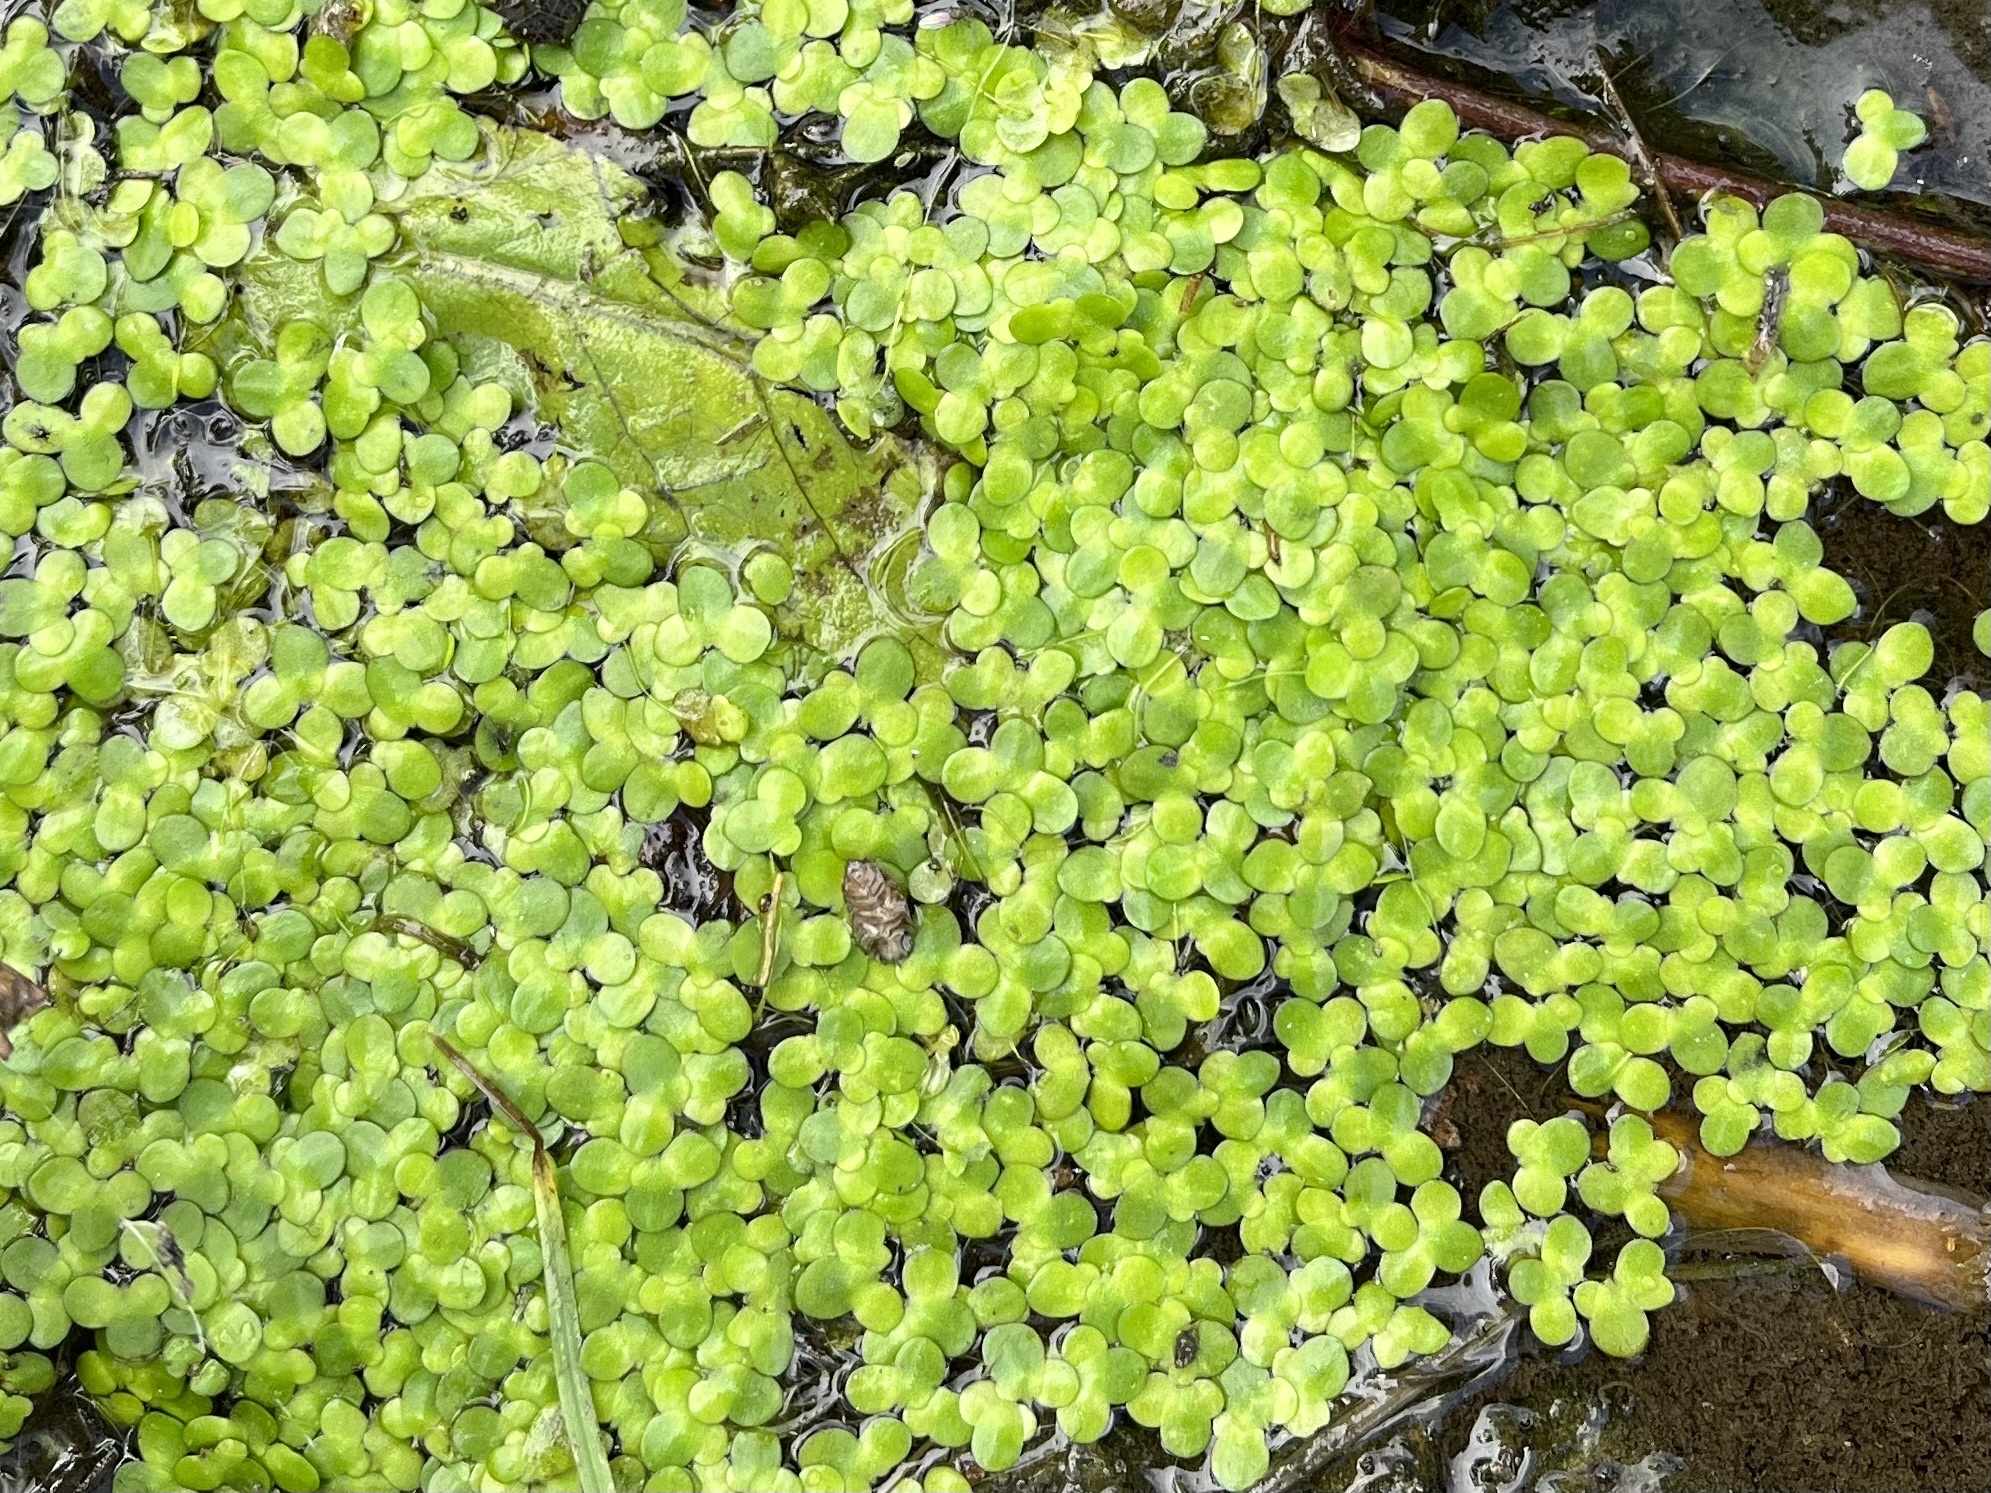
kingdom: Plantae
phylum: Tracheophyta
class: Liliopsida
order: Alismatales
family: Araceae
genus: Lemna
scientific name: Lemna minor
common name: Common duckweed
